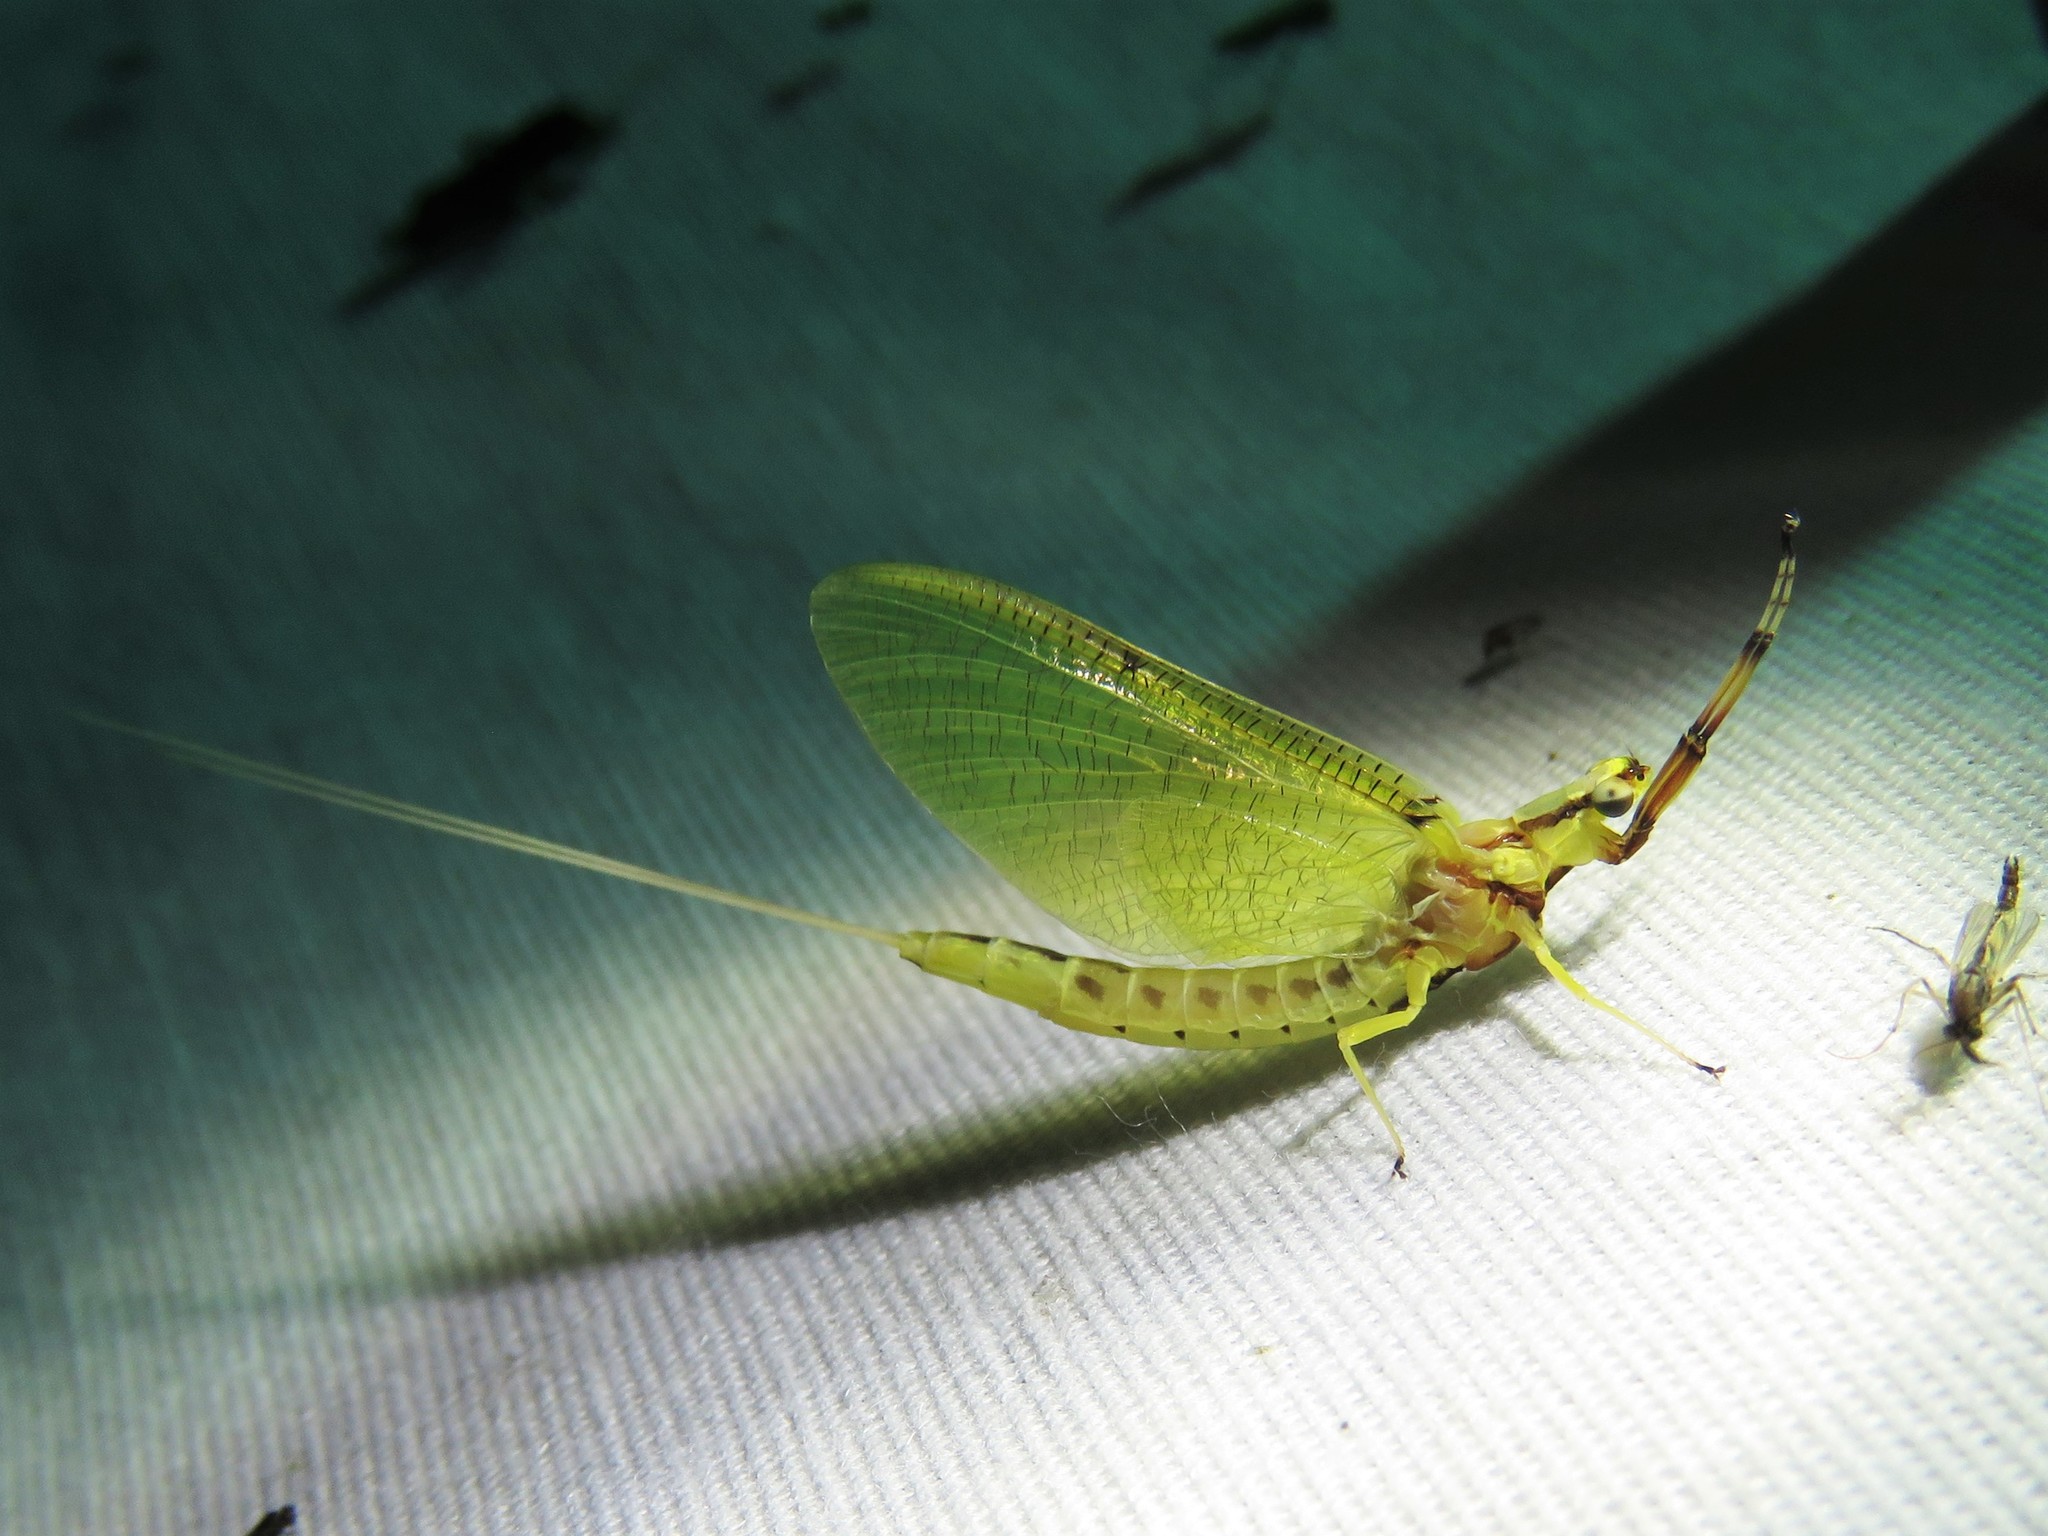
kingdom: Animalia
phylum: Arthropoda
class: Insecta
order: Ephemeroptera
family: Ephemeridae
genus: Hexagenia
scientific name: Hexagenia limbata
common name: Giant mayfly
